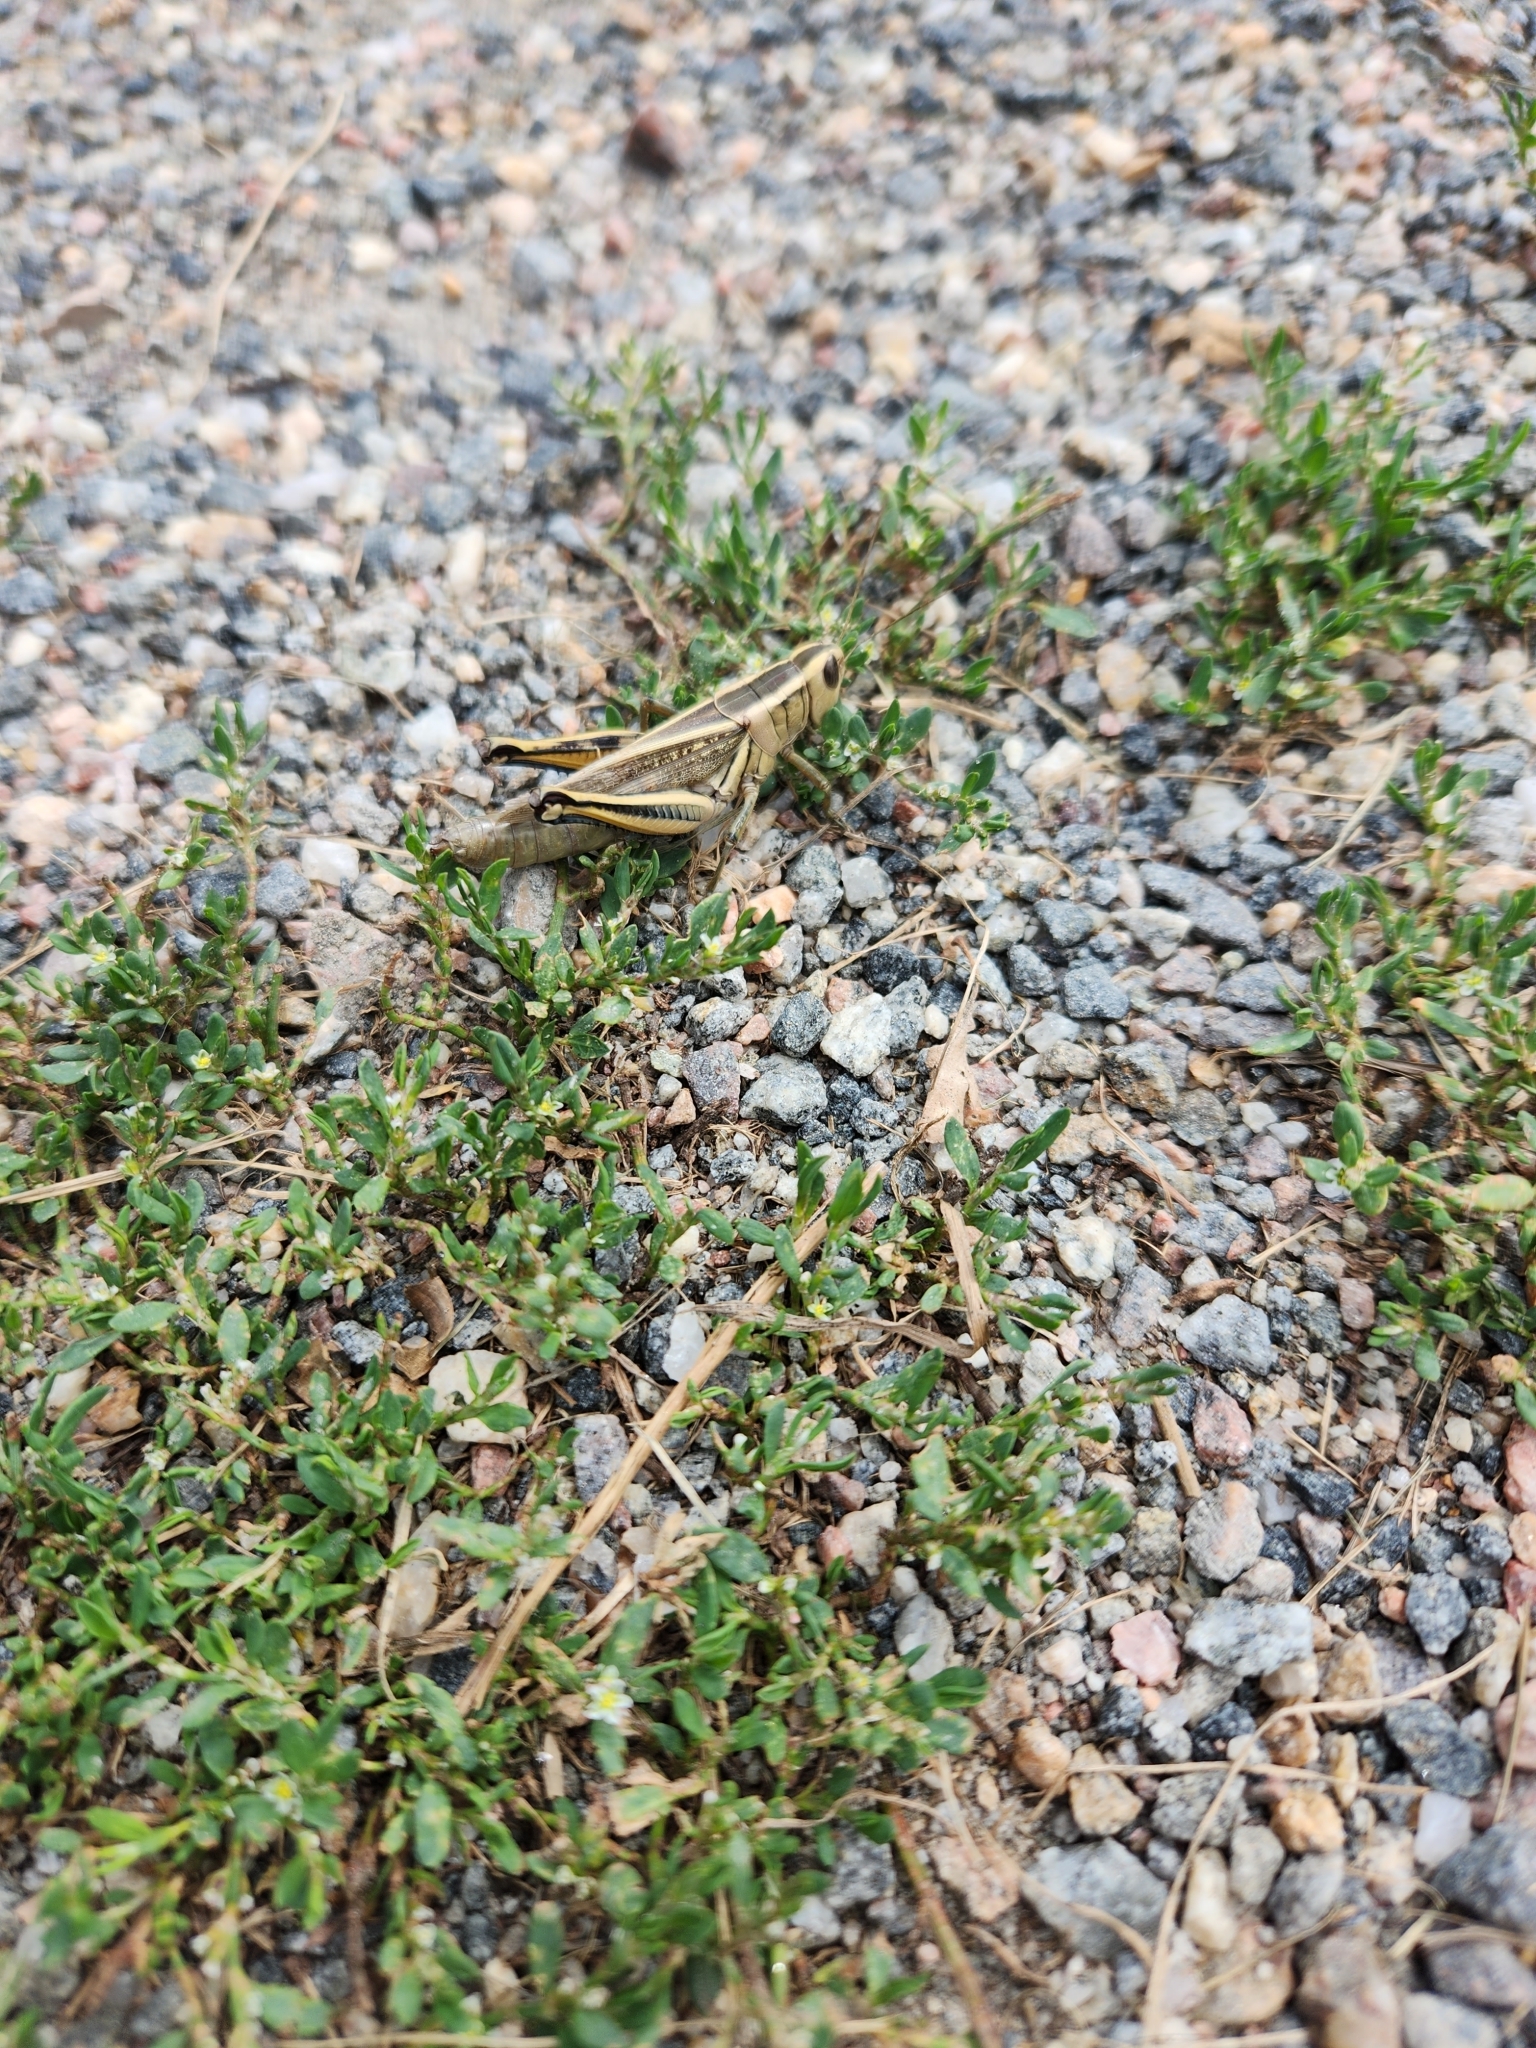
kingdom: Animalia
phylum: Arthropoda
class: Insecta
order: Orthoptera
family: Acrididae
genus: Melanoplus
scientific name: Melanoplus bivittatus
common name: Two-striped grasshopper
